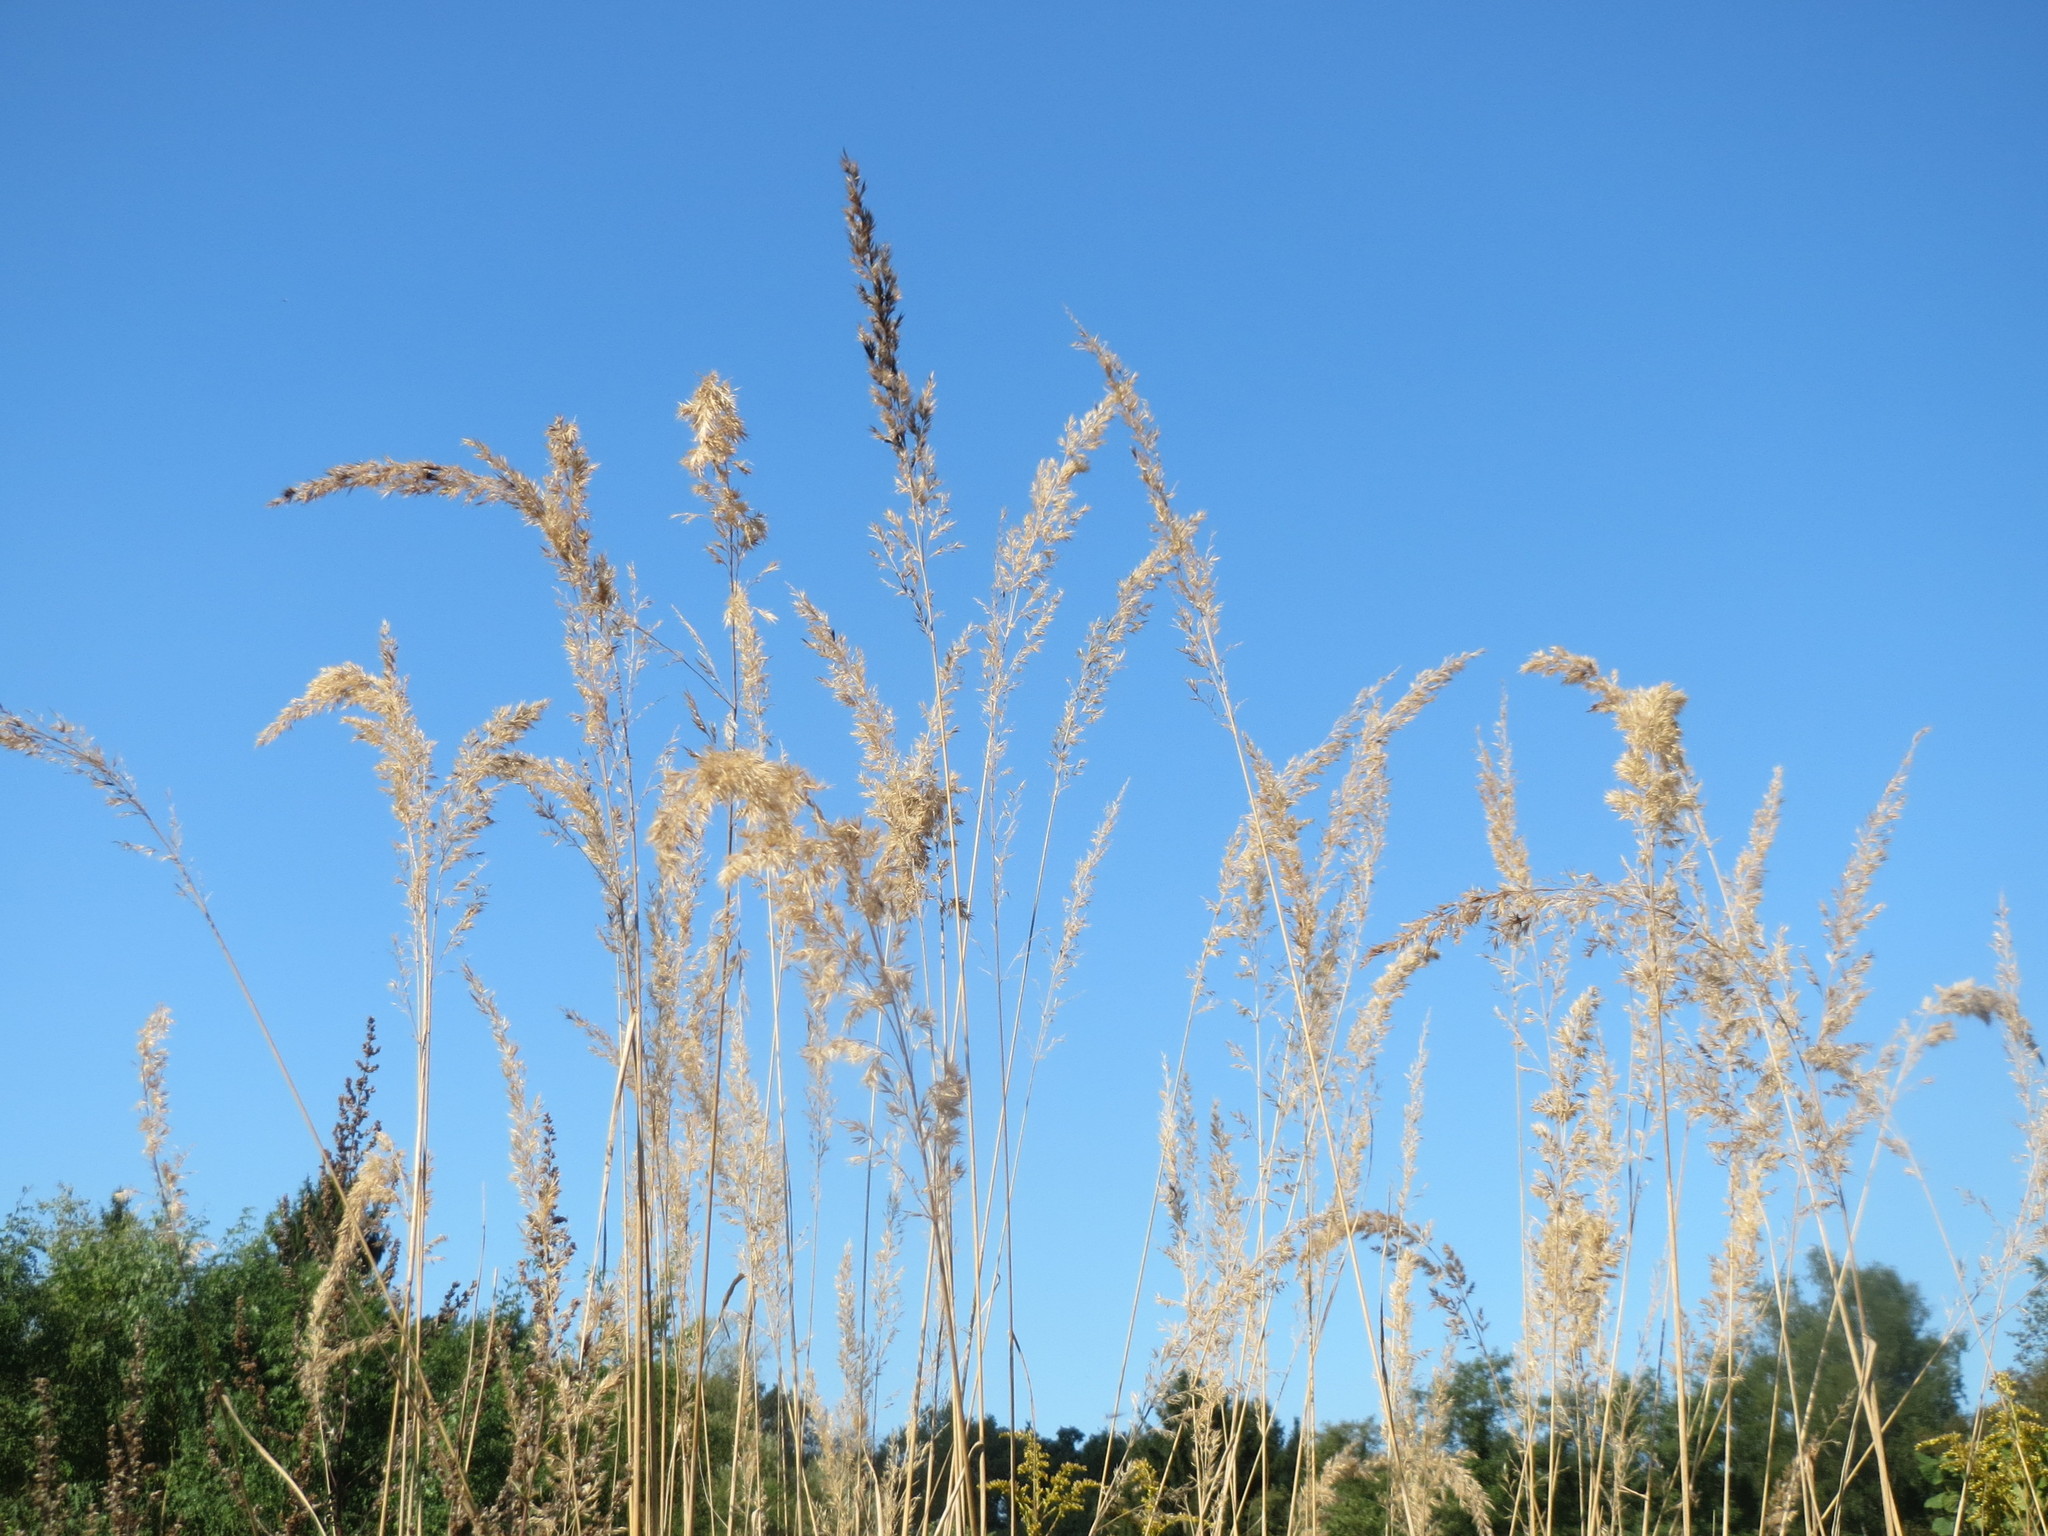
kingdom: Plantae
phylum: Tracheophyta
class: Liliopsida
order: Poales
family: Poaceae
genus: Calamagrostis
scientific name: Calamagrostis epigejos
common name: Wood small-reed
